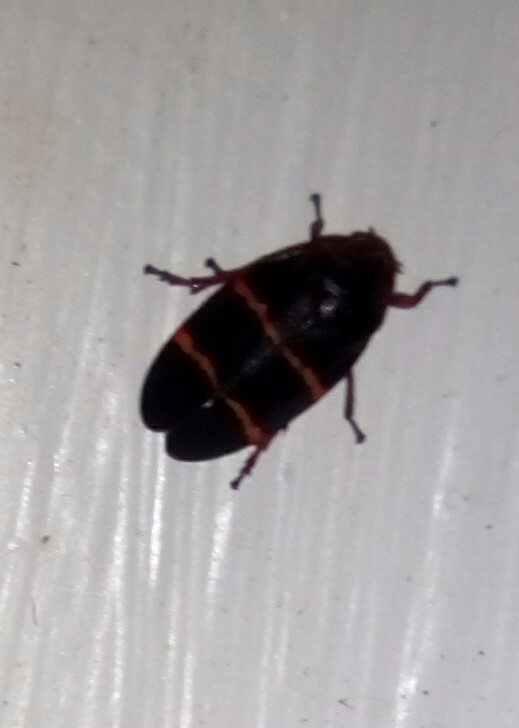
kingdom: Animalia
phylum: Arthropoda
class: Insecta
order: Hemiptera
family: Cercopidae
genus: Prosapia
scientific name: Prosapia bicincta
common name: Twolined spittlebug
